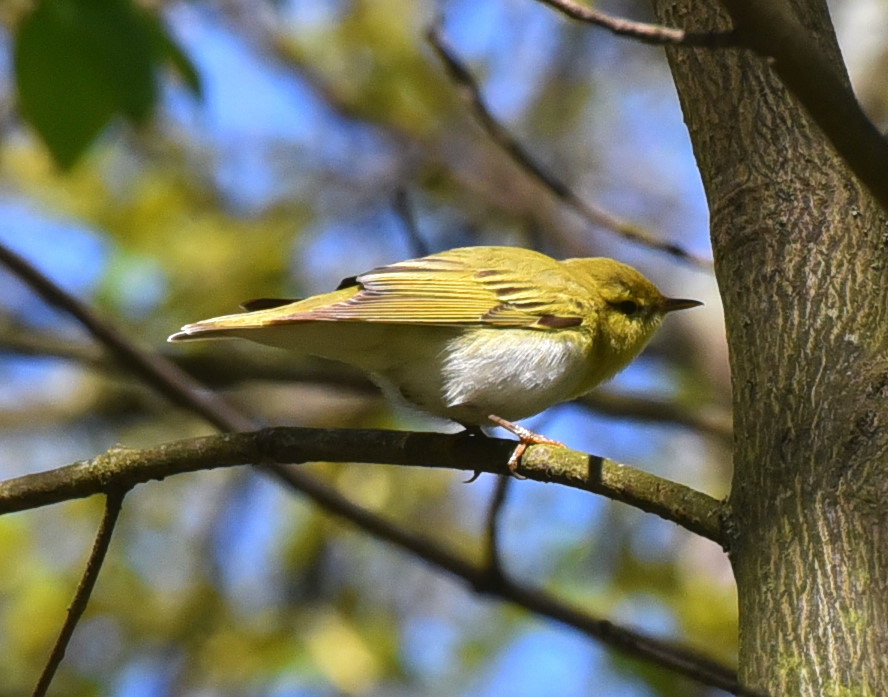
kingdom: Animalia
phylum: Chordata
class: Aves
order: Passeriformes
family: Phylloscopidae
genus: Phylloscopus
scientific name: Phylloscopus sibillatrix
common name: Wood warbler
